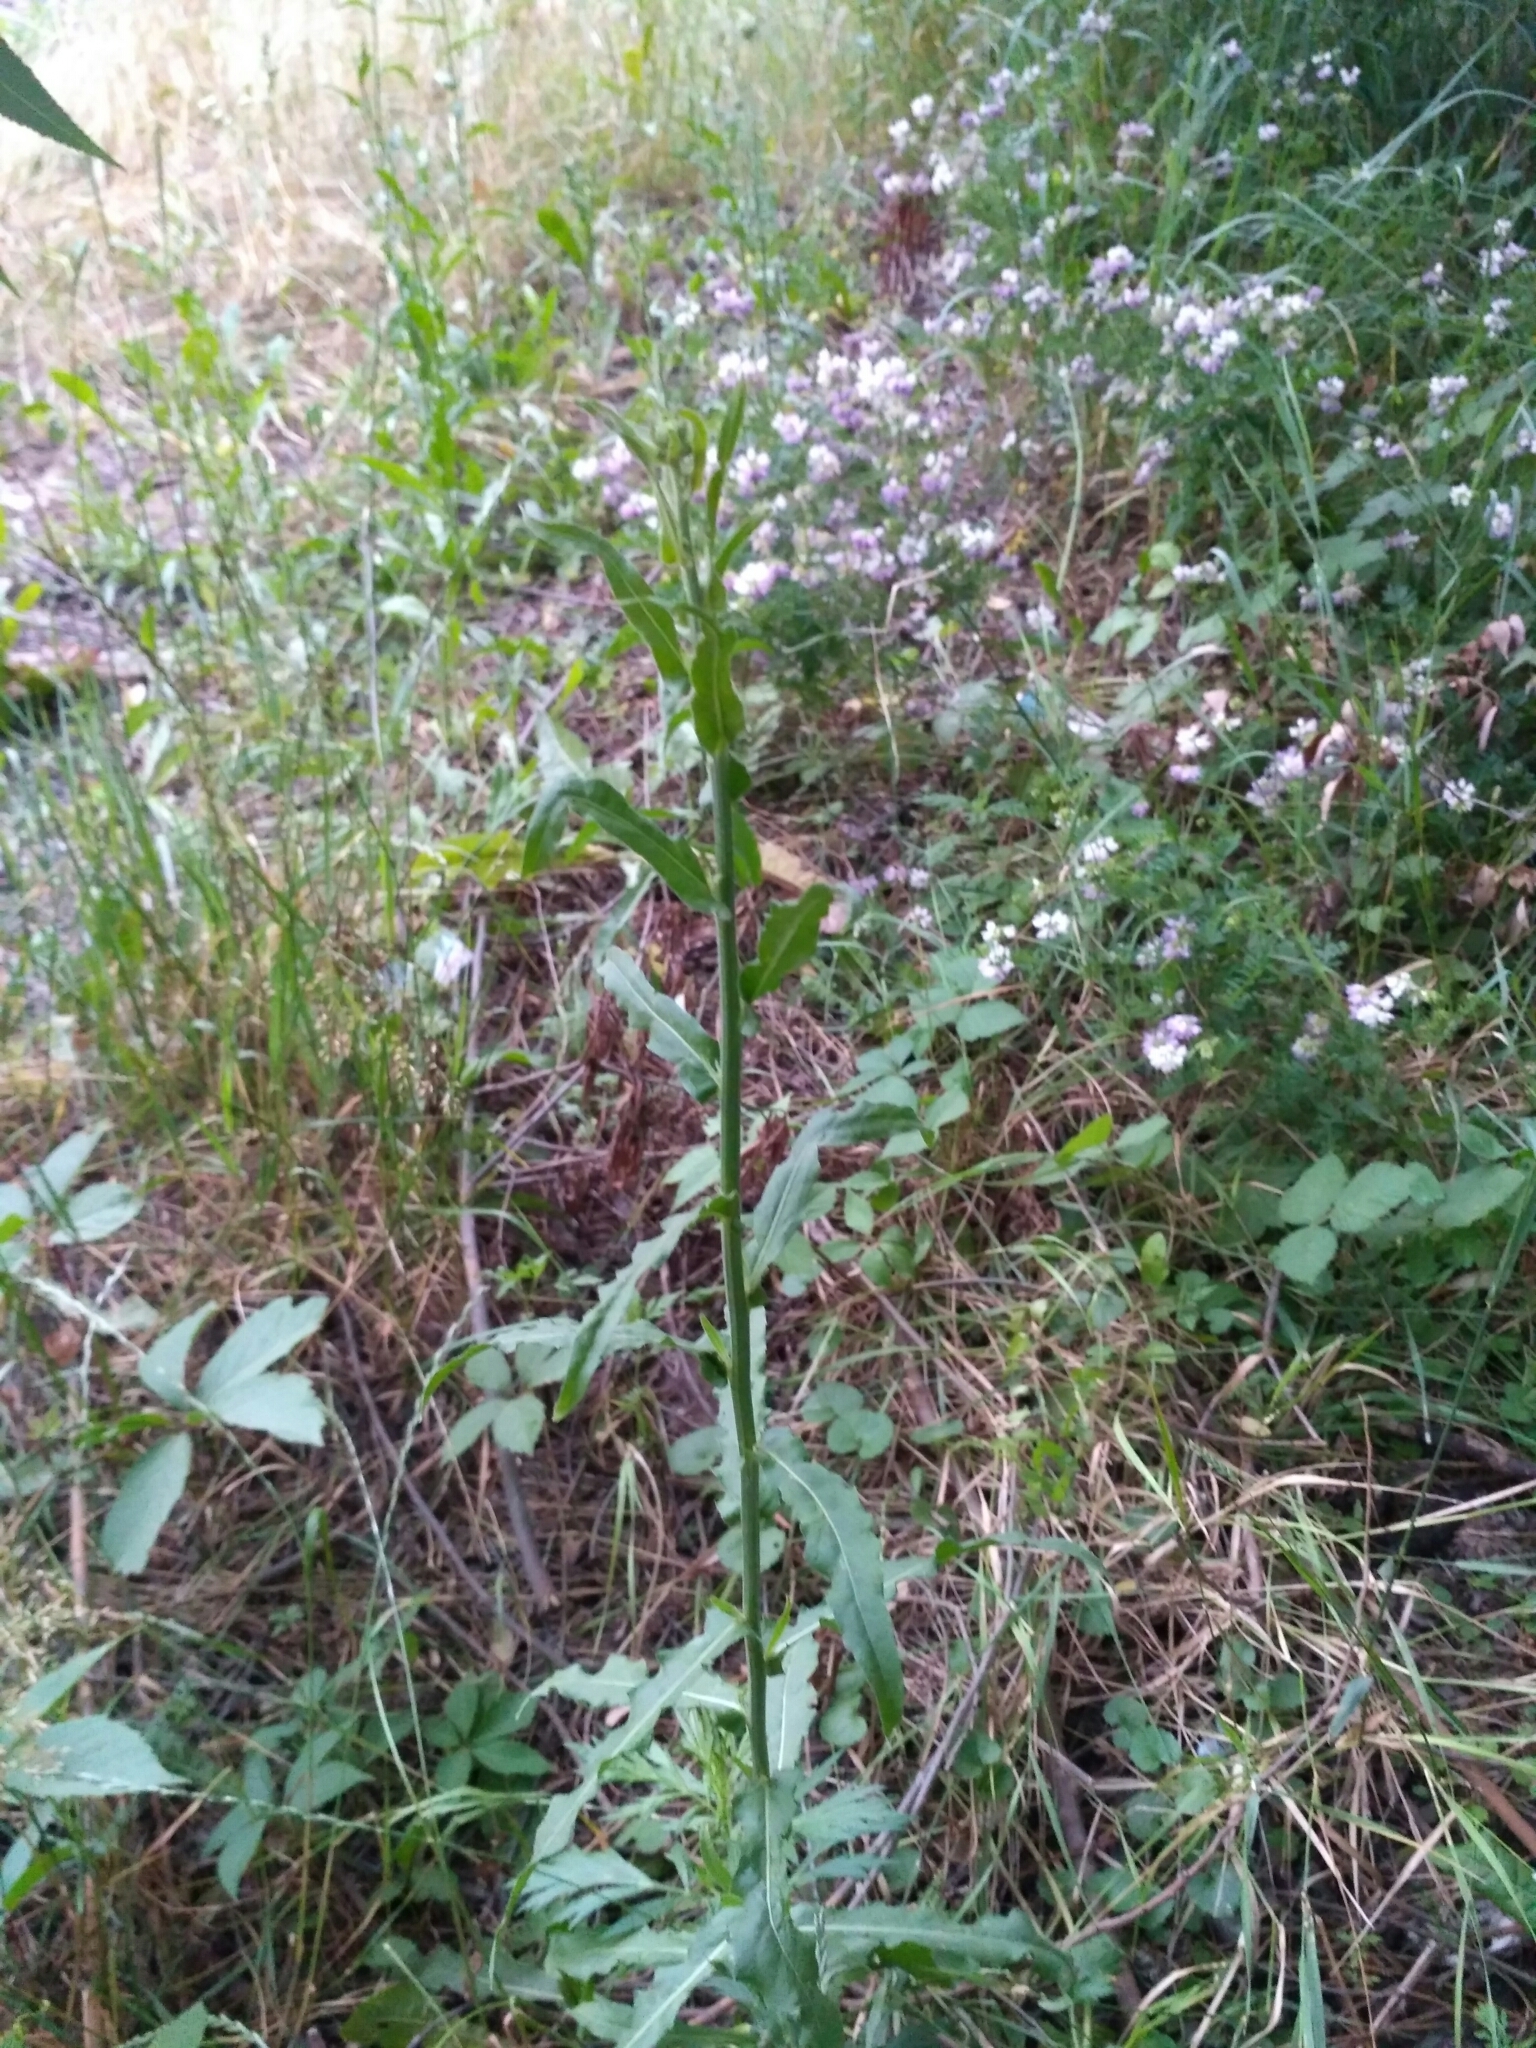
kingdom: Plantae
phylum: Tracheophyta
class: Magnoliopsida
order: Asterales
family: Asteraceae
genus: Picris
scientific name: Picris hieracioides
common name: Hawkweed oxtongue
